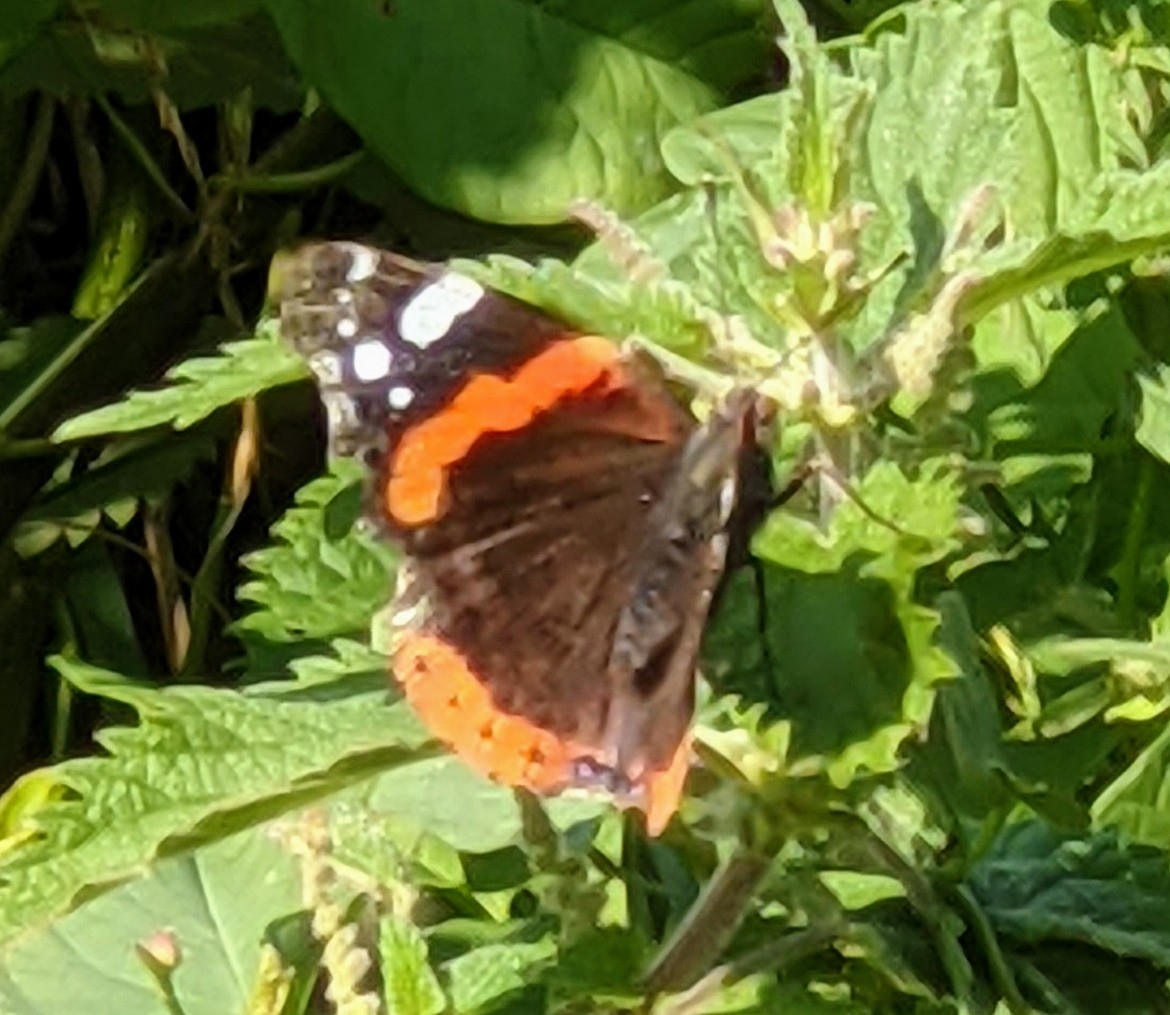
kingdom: Animalia
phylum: Arthropoda
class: Insecta
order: Lepidoptera
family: Nymphalidae
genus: Vanessa
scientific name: Vanessa atalanta
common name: Red admiral
